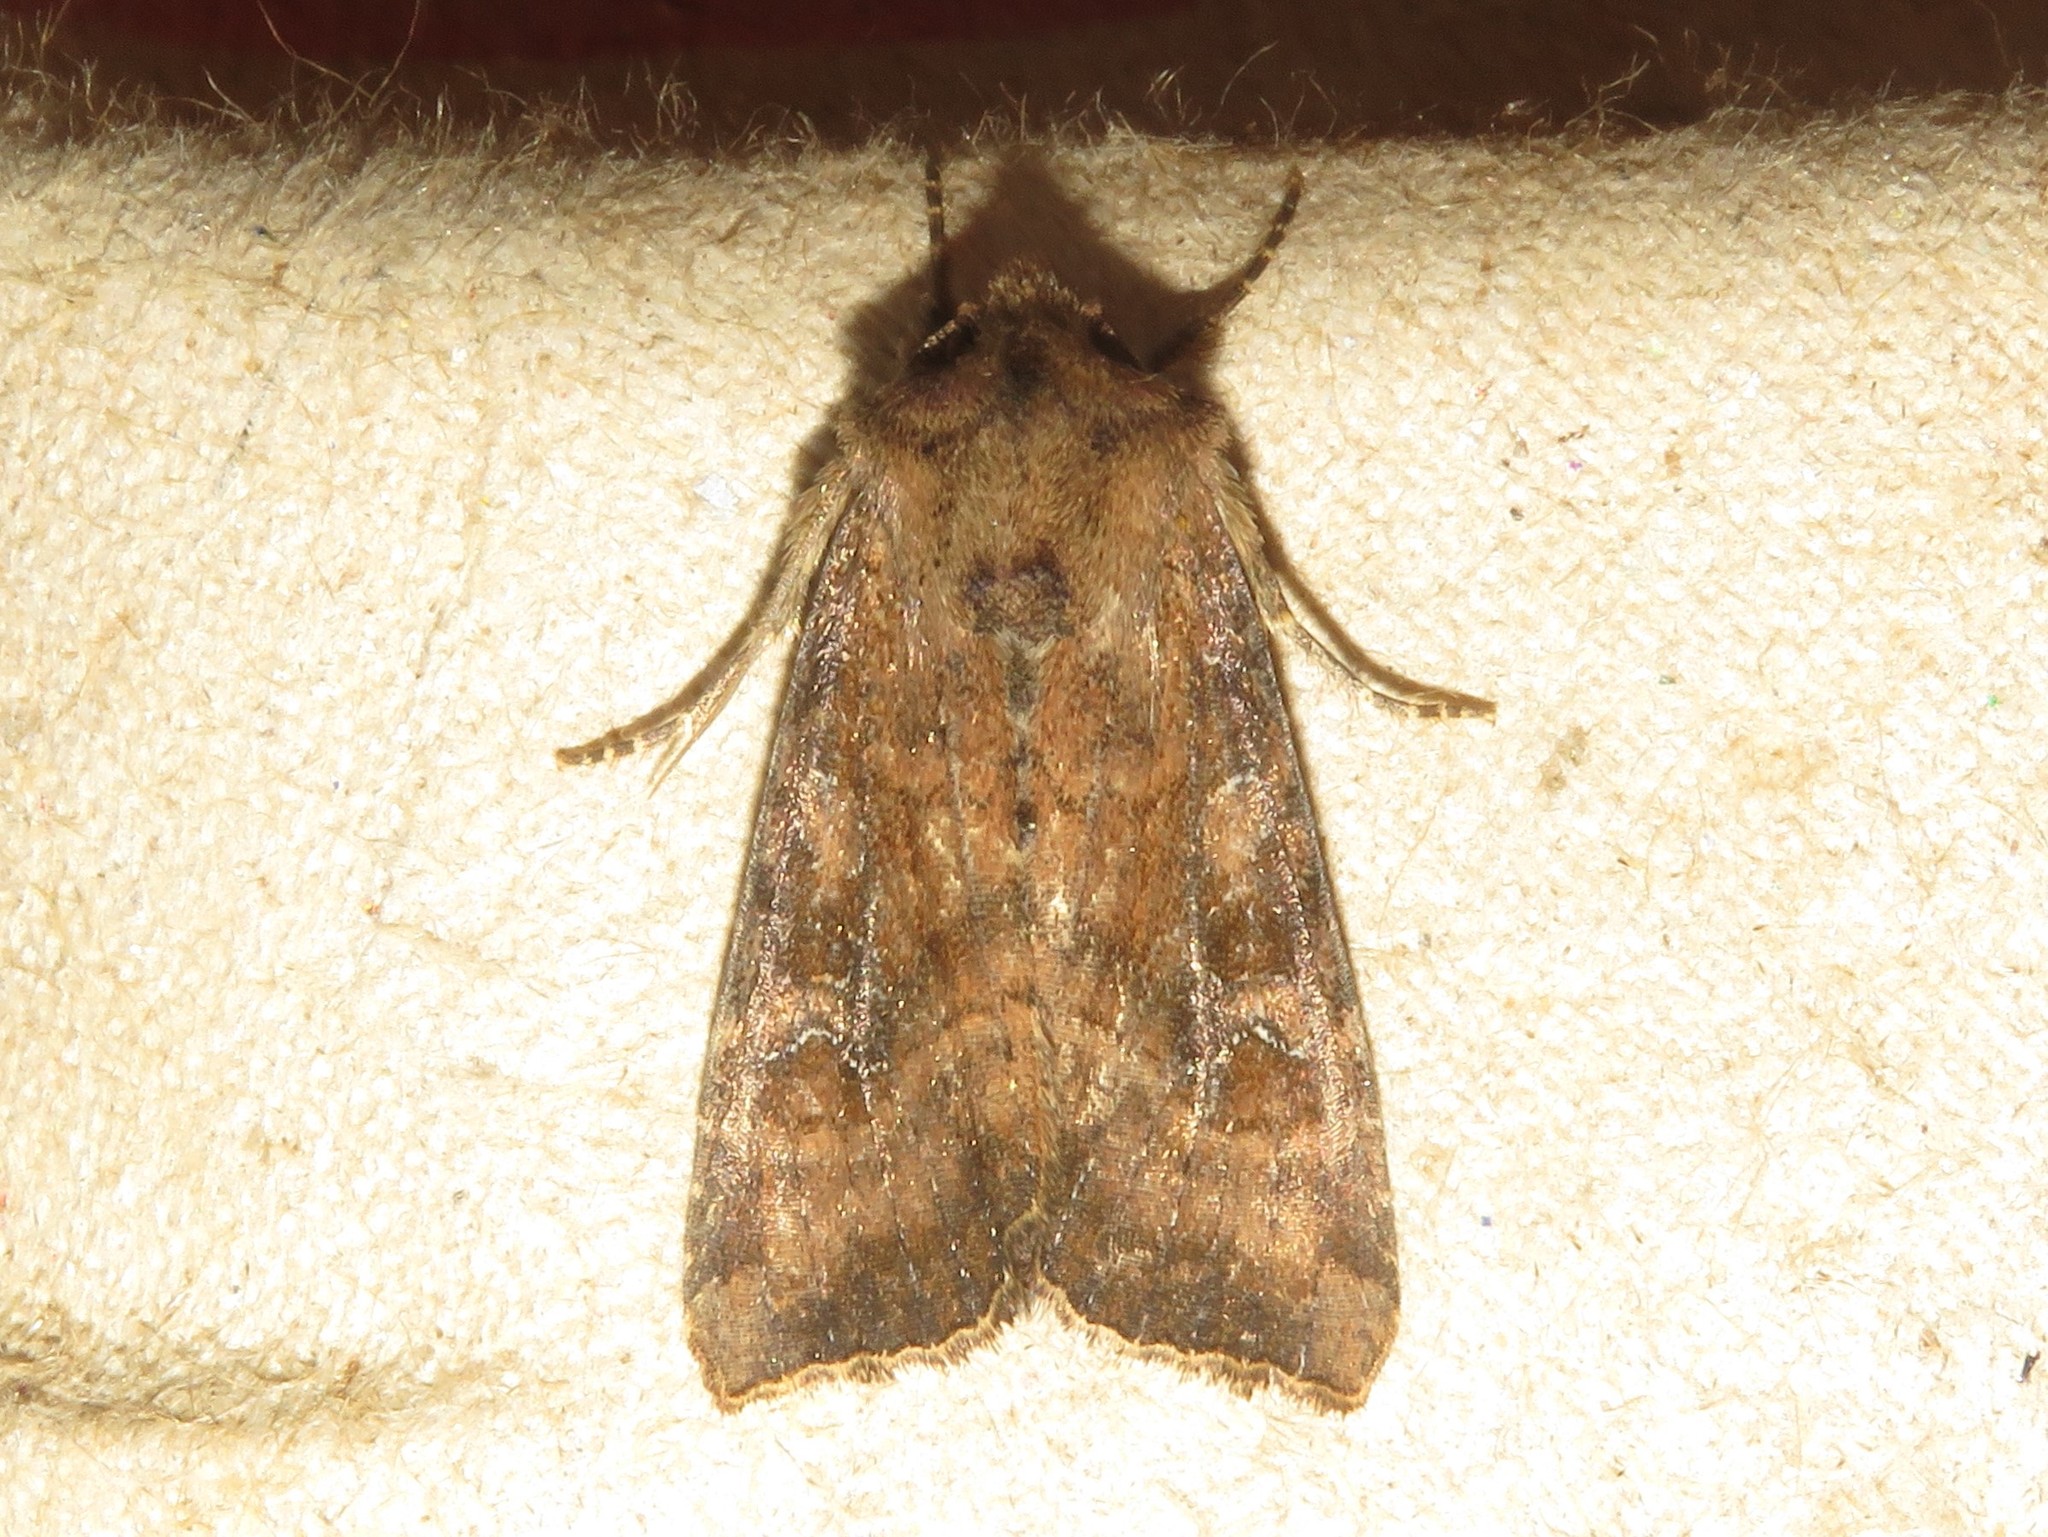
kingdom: Animalia
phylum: Arthropoda
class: Insecta
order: Lepidoptera
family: Noctuidae
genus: Loscopia
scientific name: Loscopia velata
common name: Veiled ear moth
